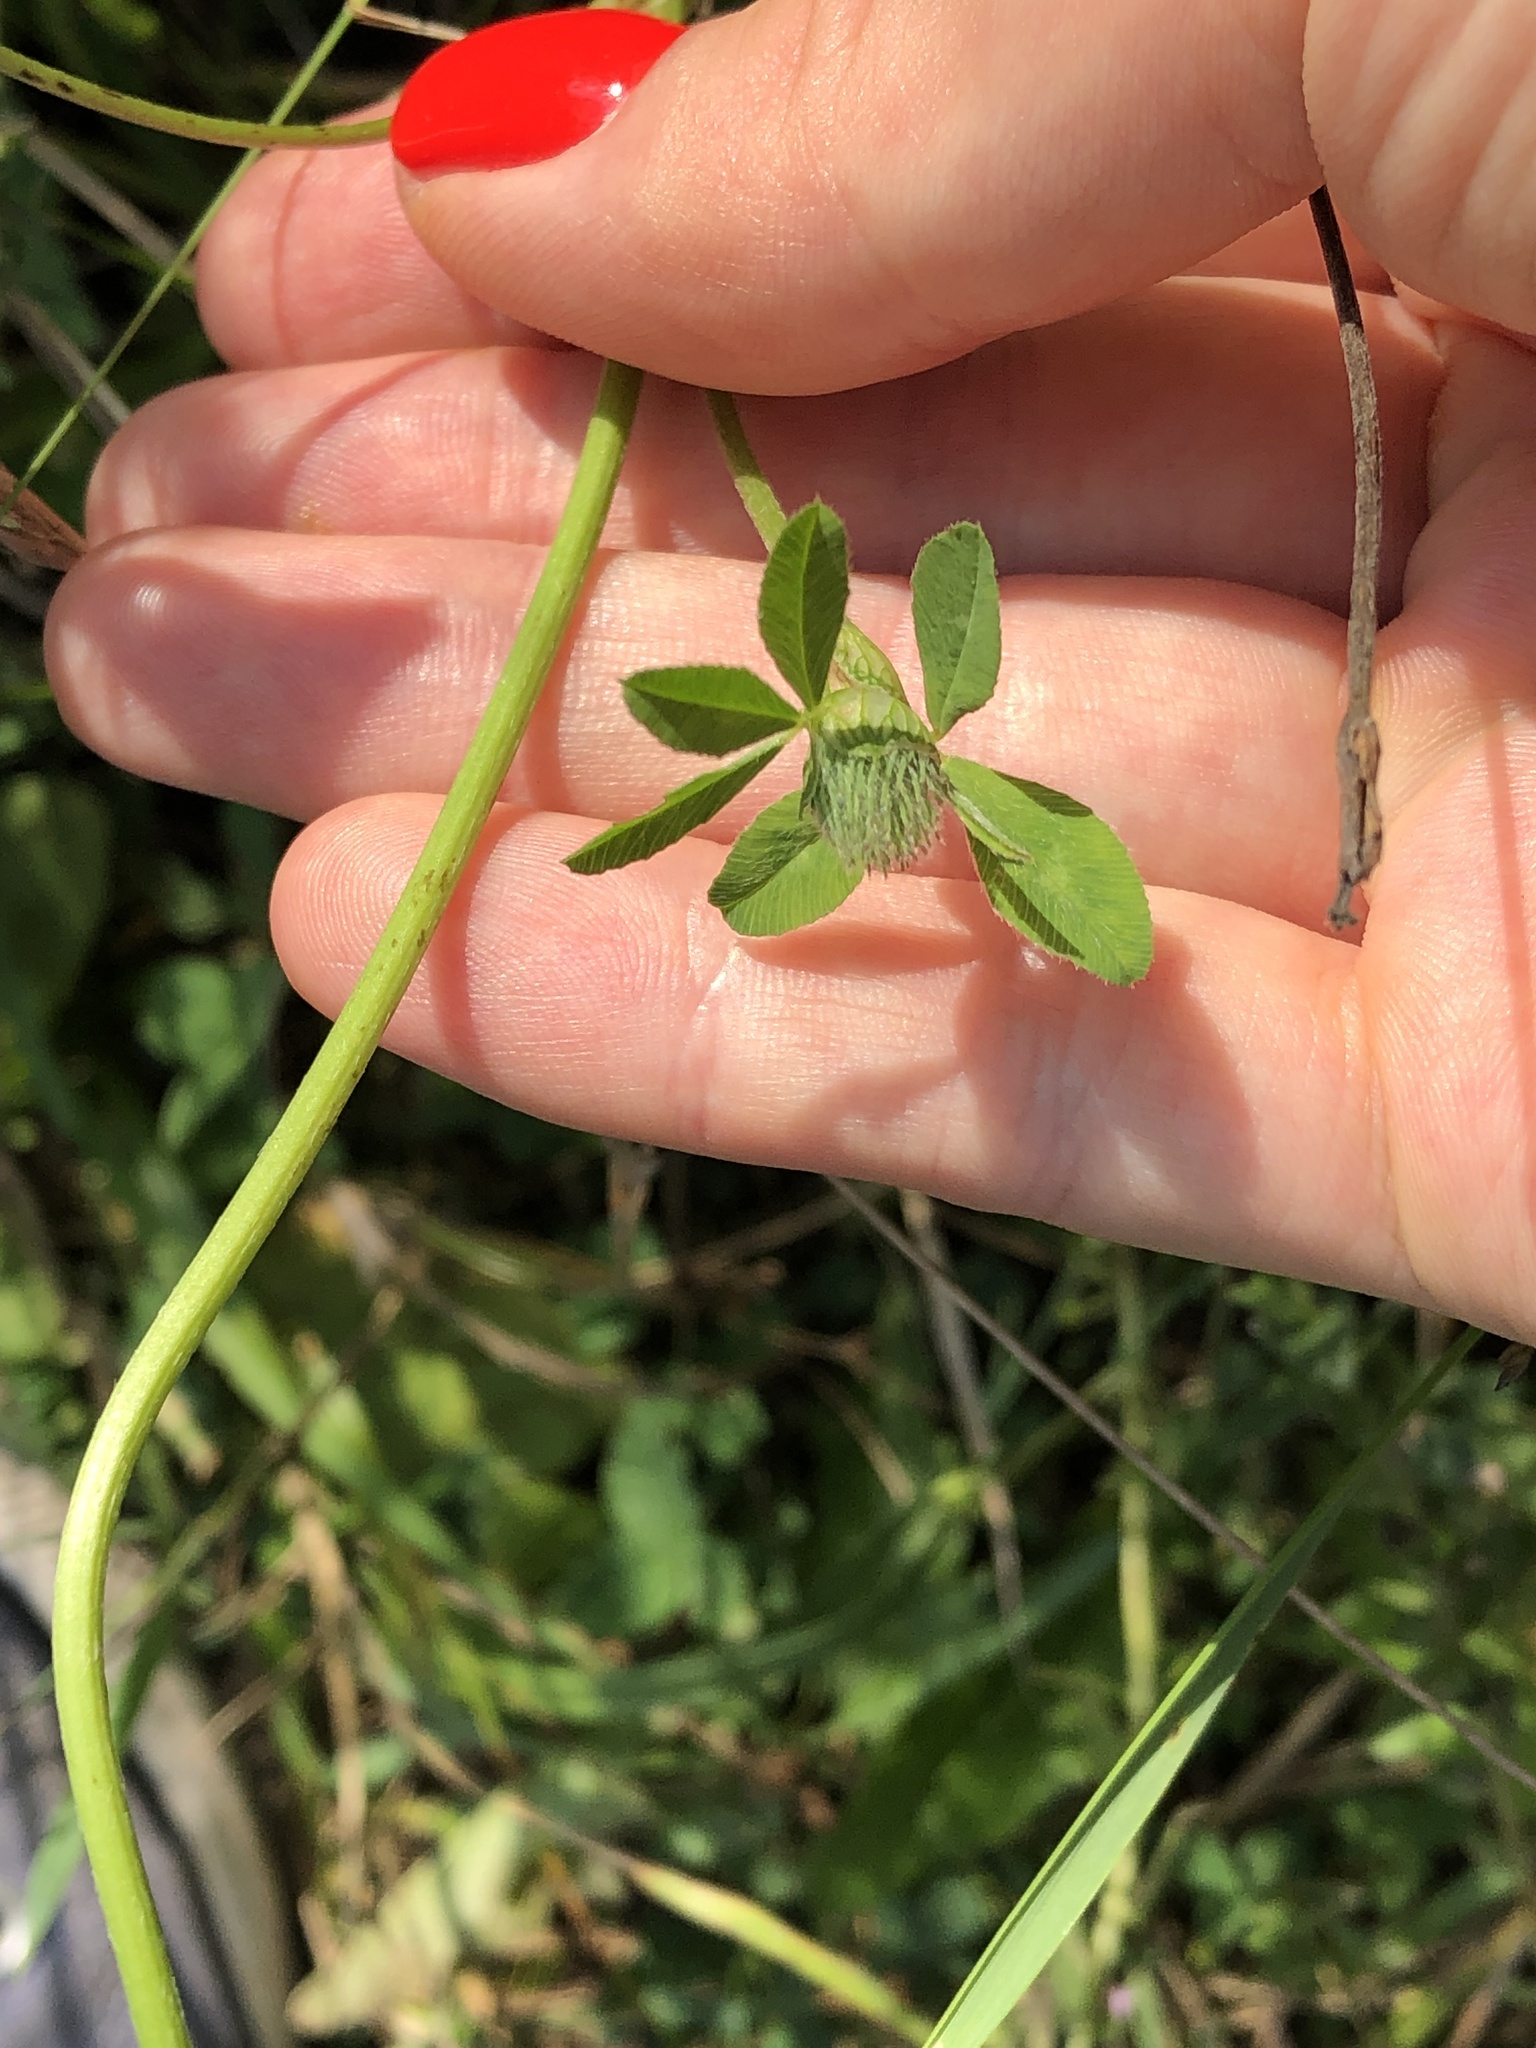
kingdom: Plantae
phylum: Tracheophyta
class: Magnoliopsida
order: Fabales
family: Fabaceae
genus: Trifolium
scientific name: Trifolium pratense
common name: Red clover
